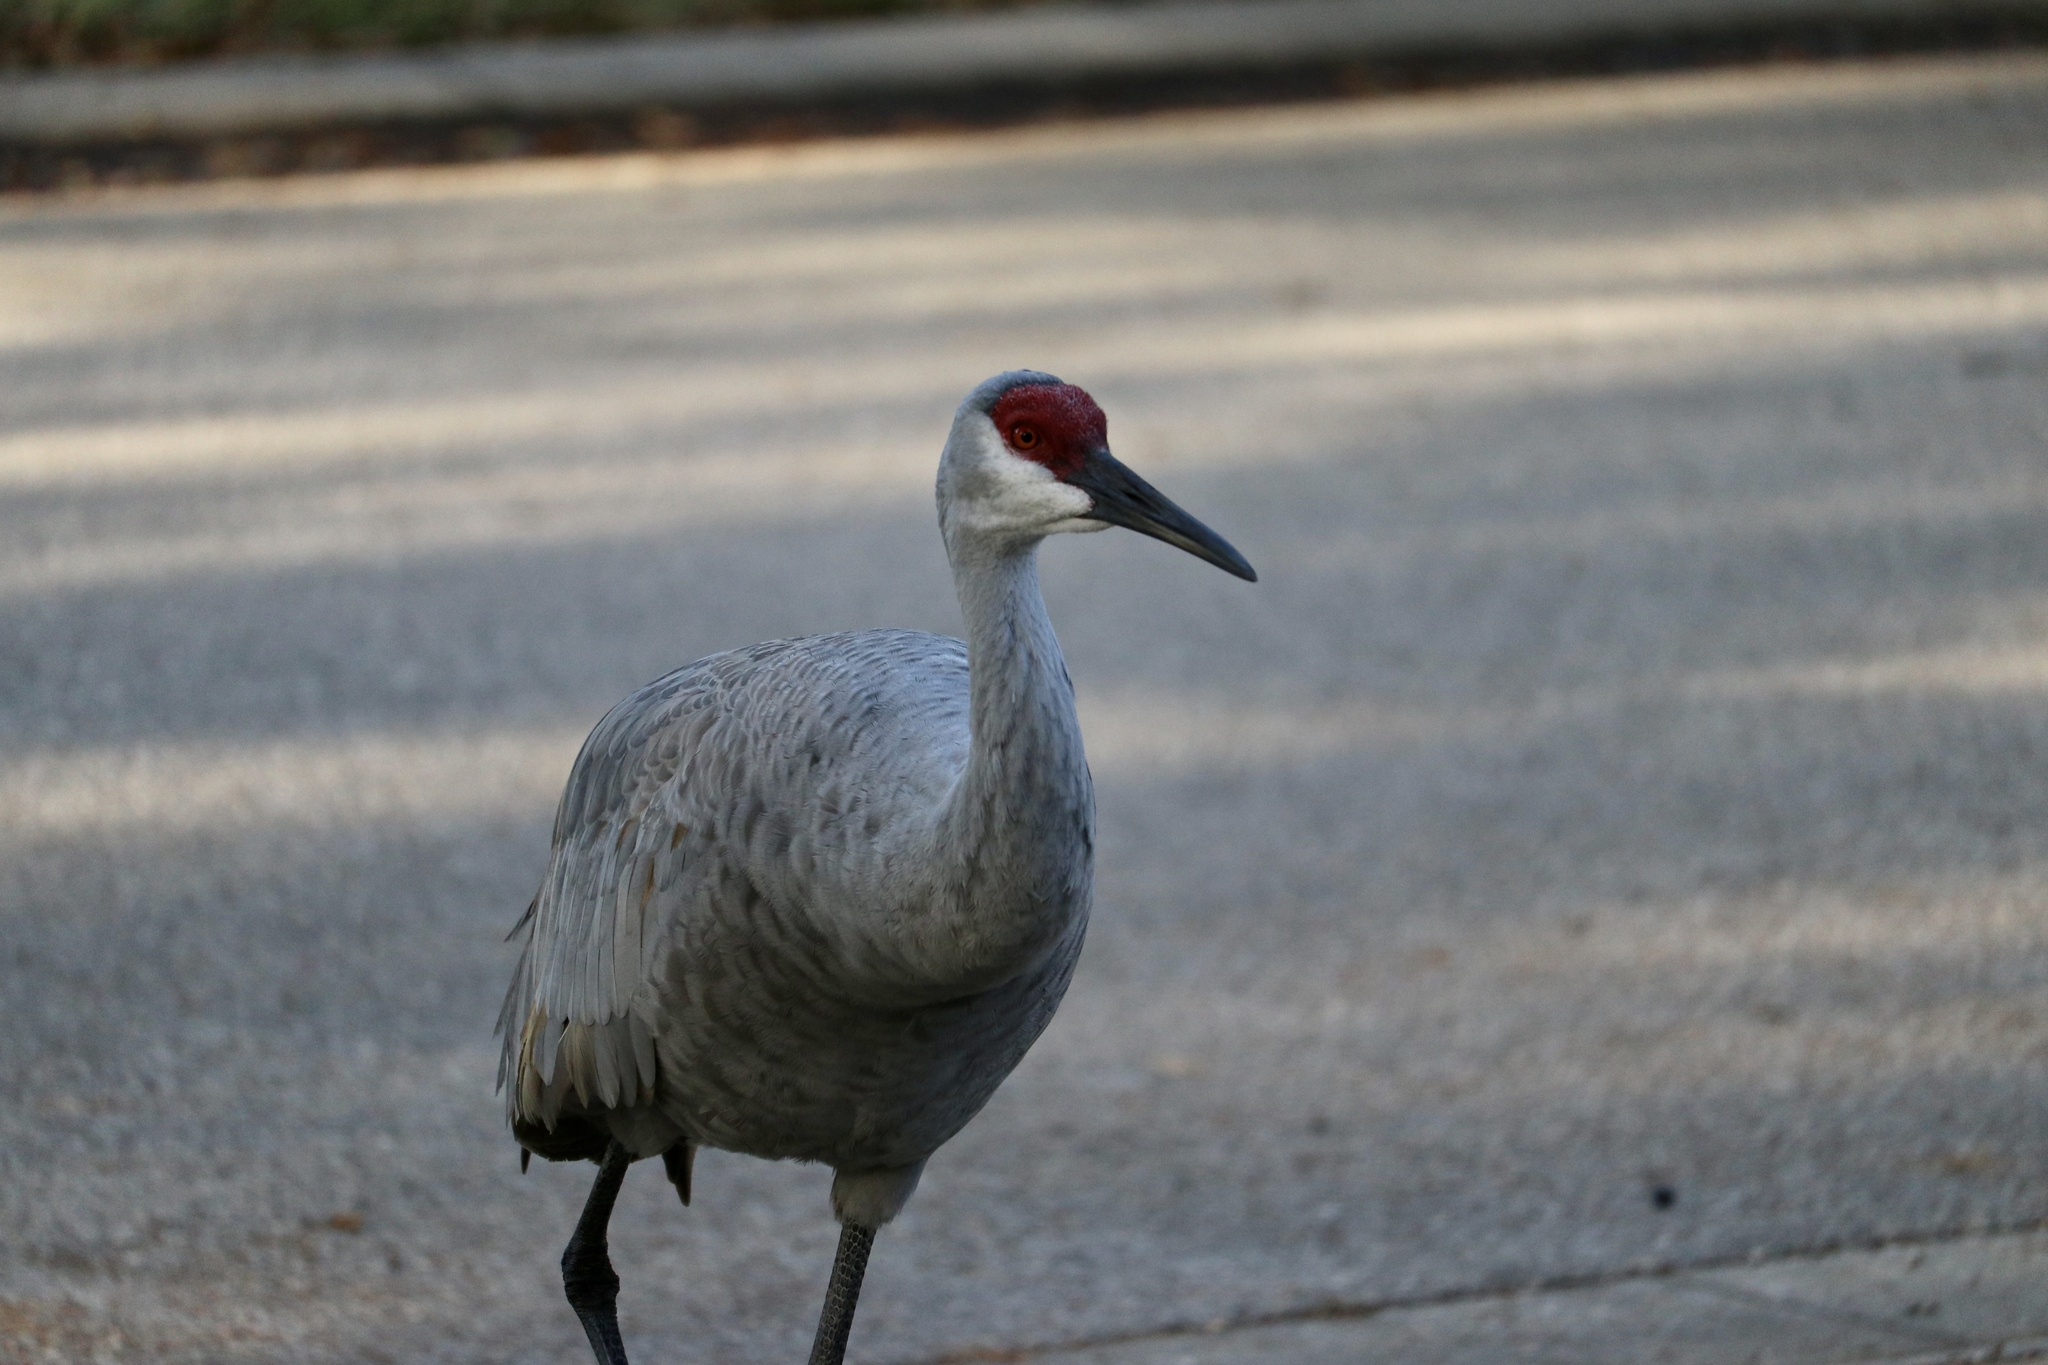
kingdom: Animalia
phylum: Chordata
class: Aves
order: Gruiformes
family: Gruidae
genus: Grus
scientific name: Grus canadensis
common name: Sandhill crane
